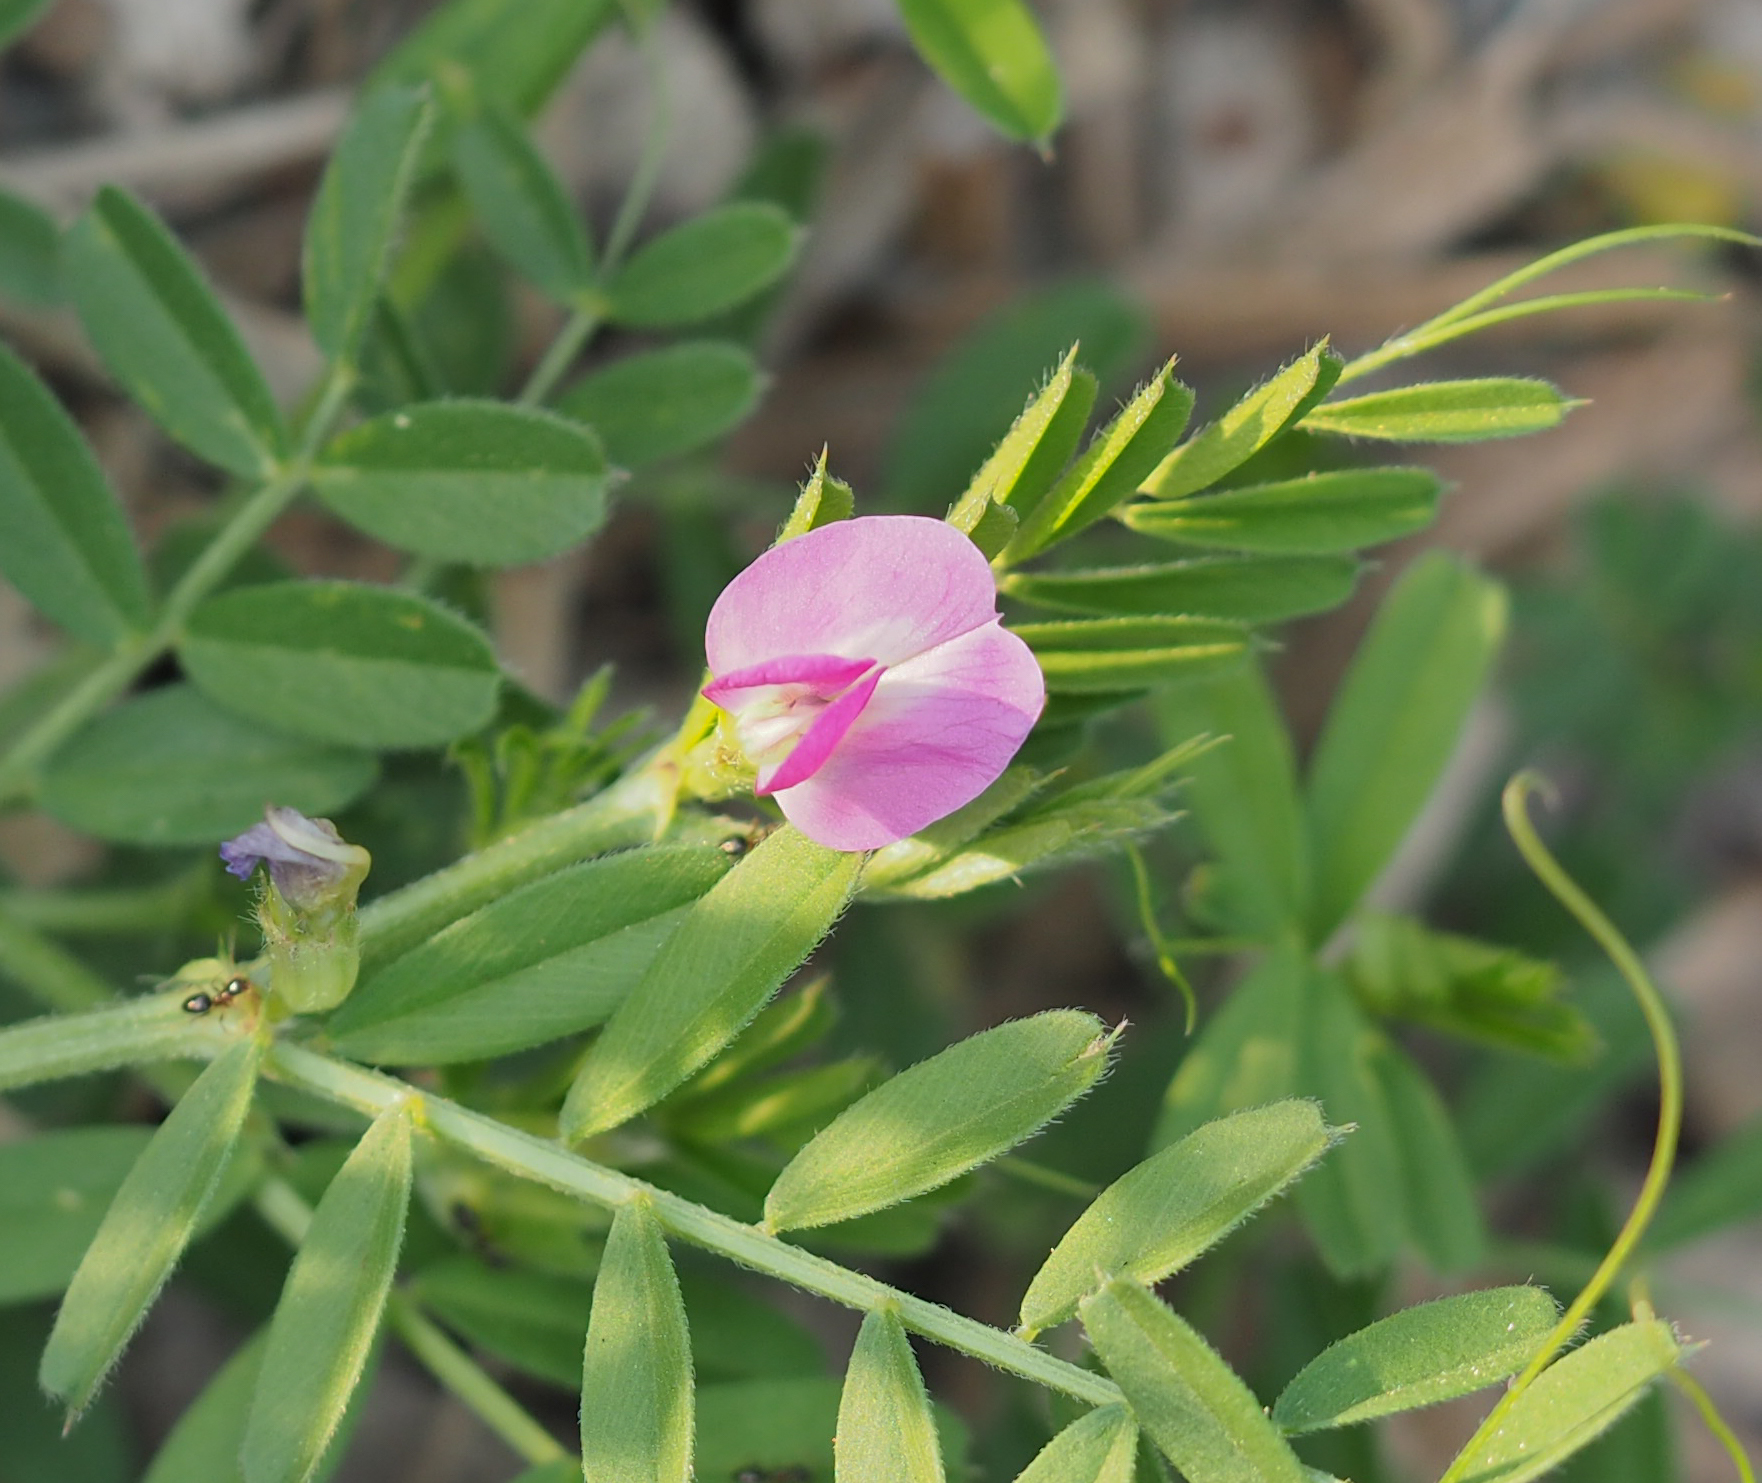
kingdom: Plantae
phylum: Tracheophyta
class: Magnoliopsida
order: Fabales
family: Fabaceae
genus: Vicia
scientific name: Vicia sativa
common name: Garden vetch
